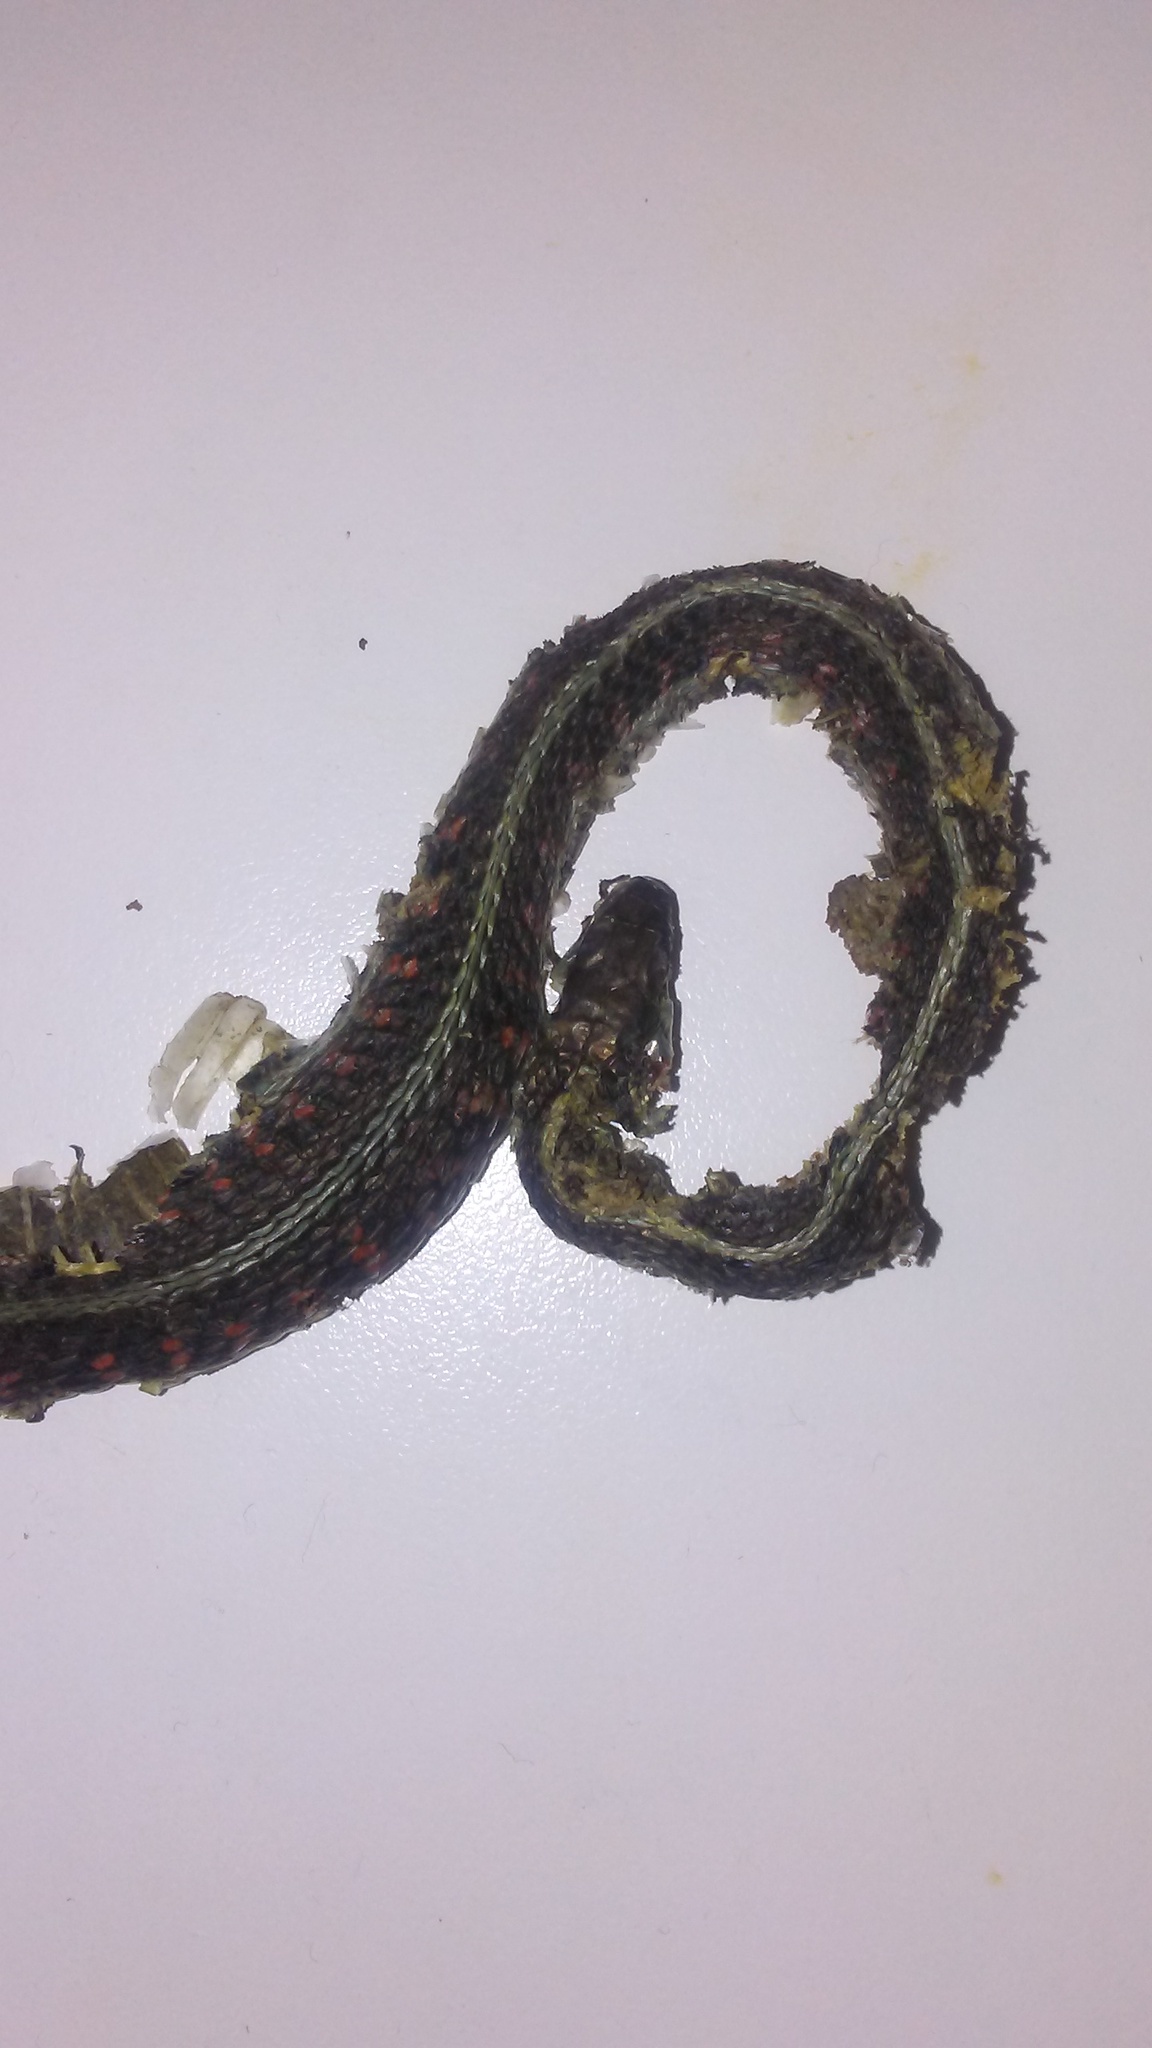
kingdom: Animalia
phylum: Chordata
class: Squamata
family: Colubridae
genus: Thamnophis
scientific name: Thamnophis sirtalis
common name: Common garter snake
